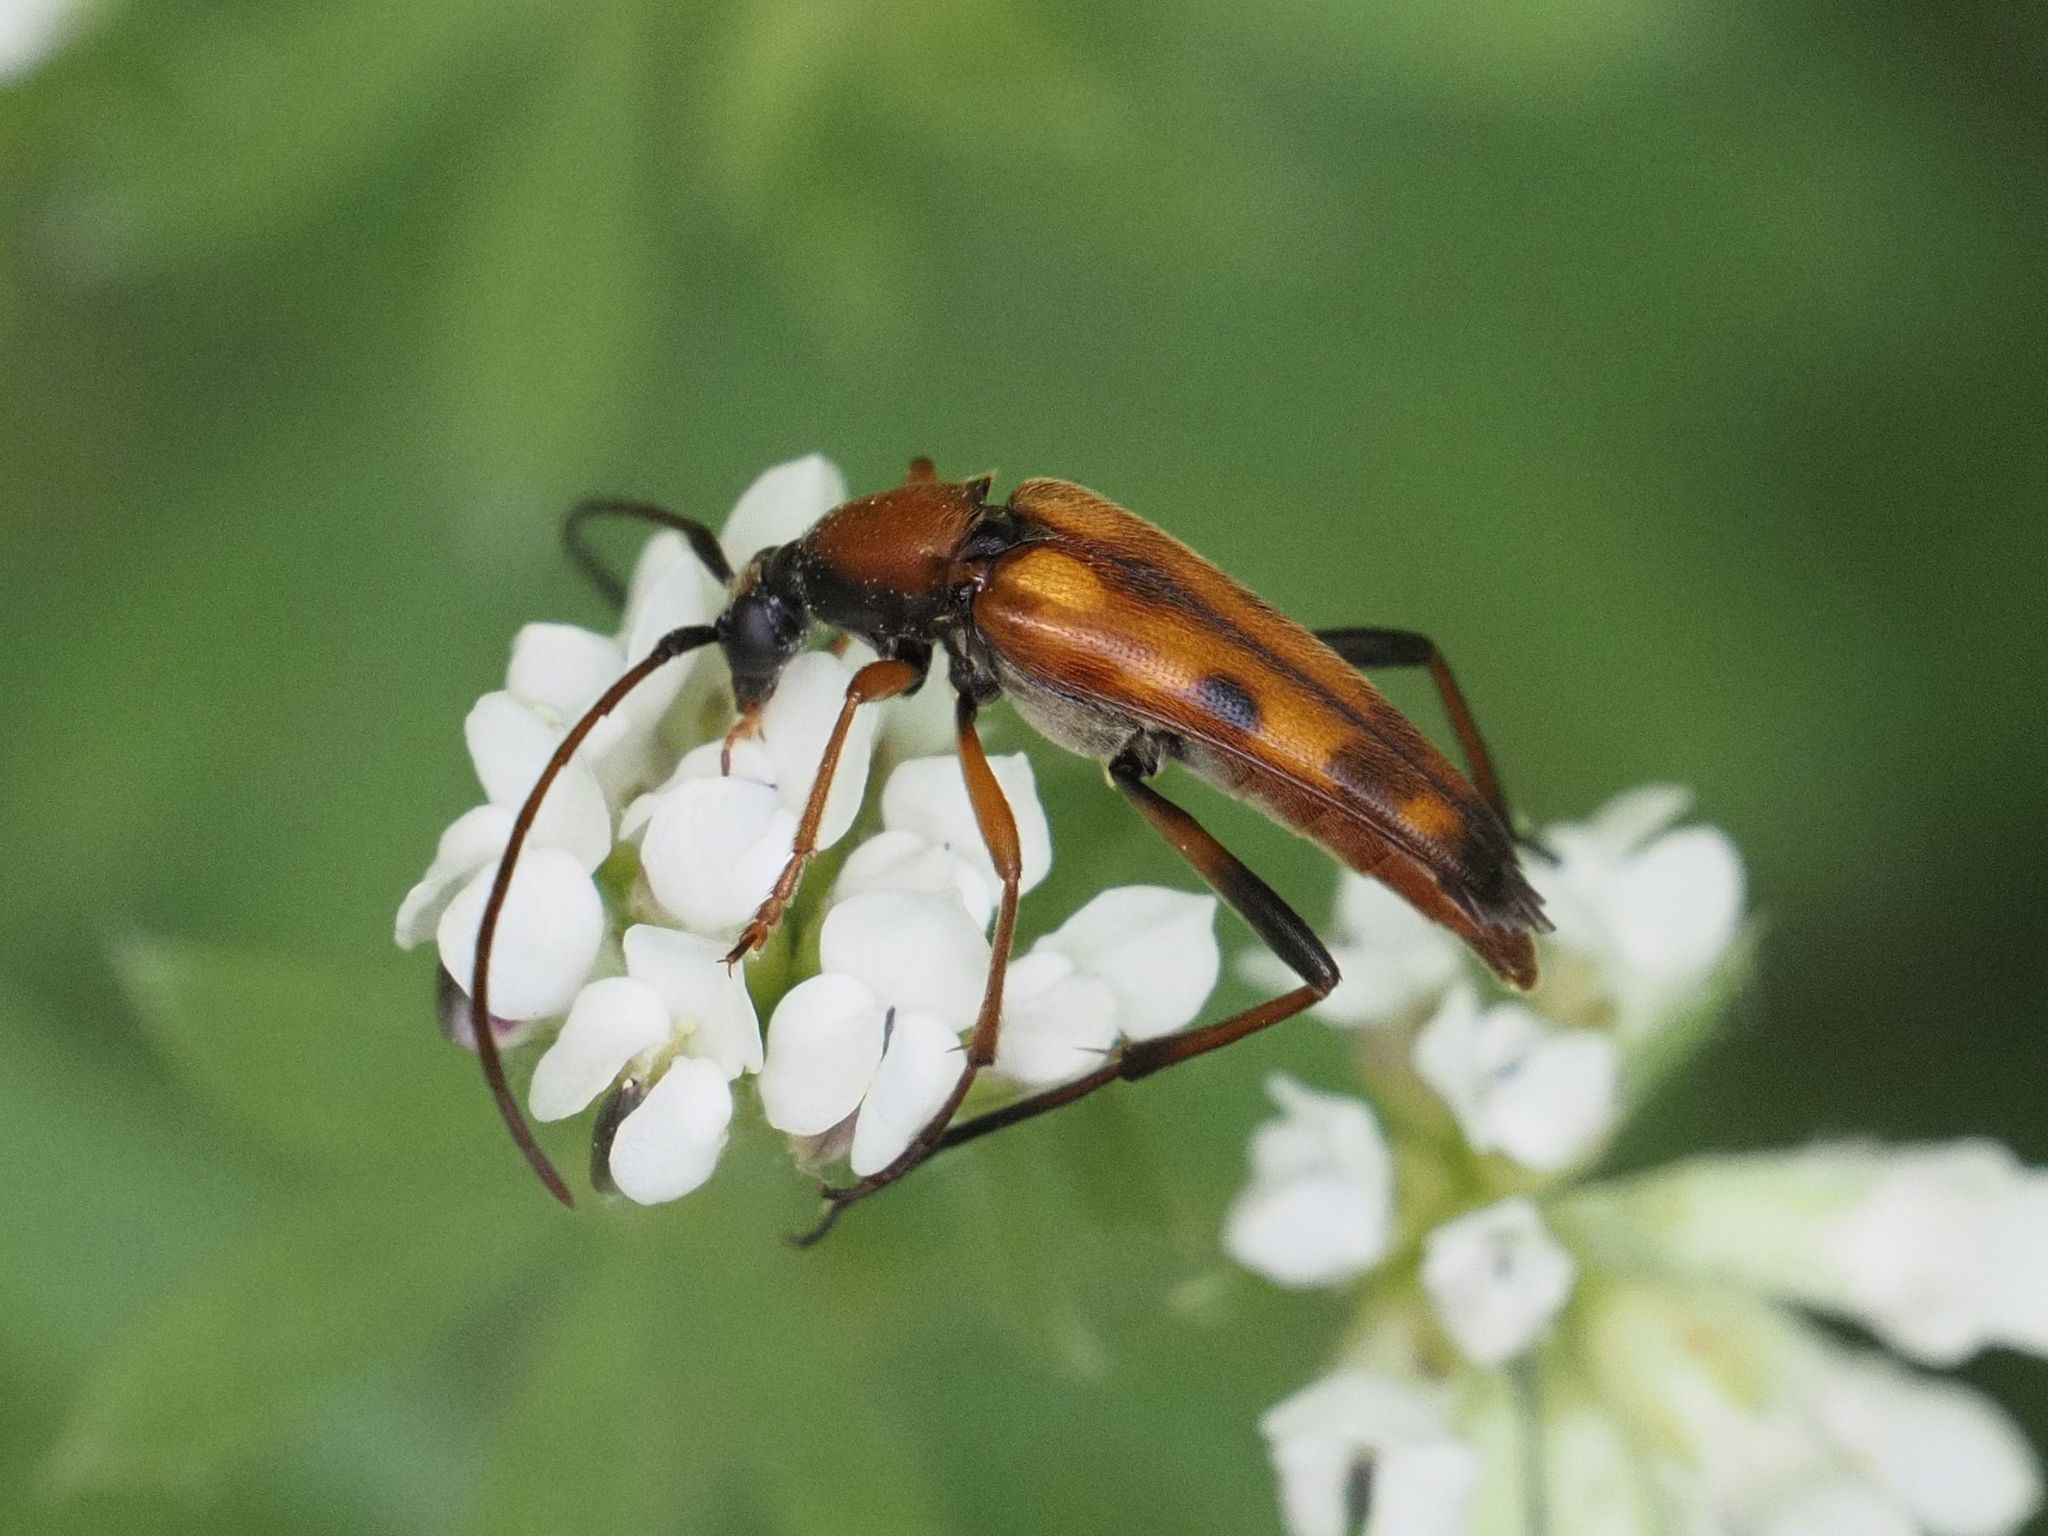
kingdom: Animalia
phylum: Arthropoda
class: Insecta
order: Coleoptera
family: Cerambycidae
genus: Stenurella
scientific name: Stenurella septempunctata
